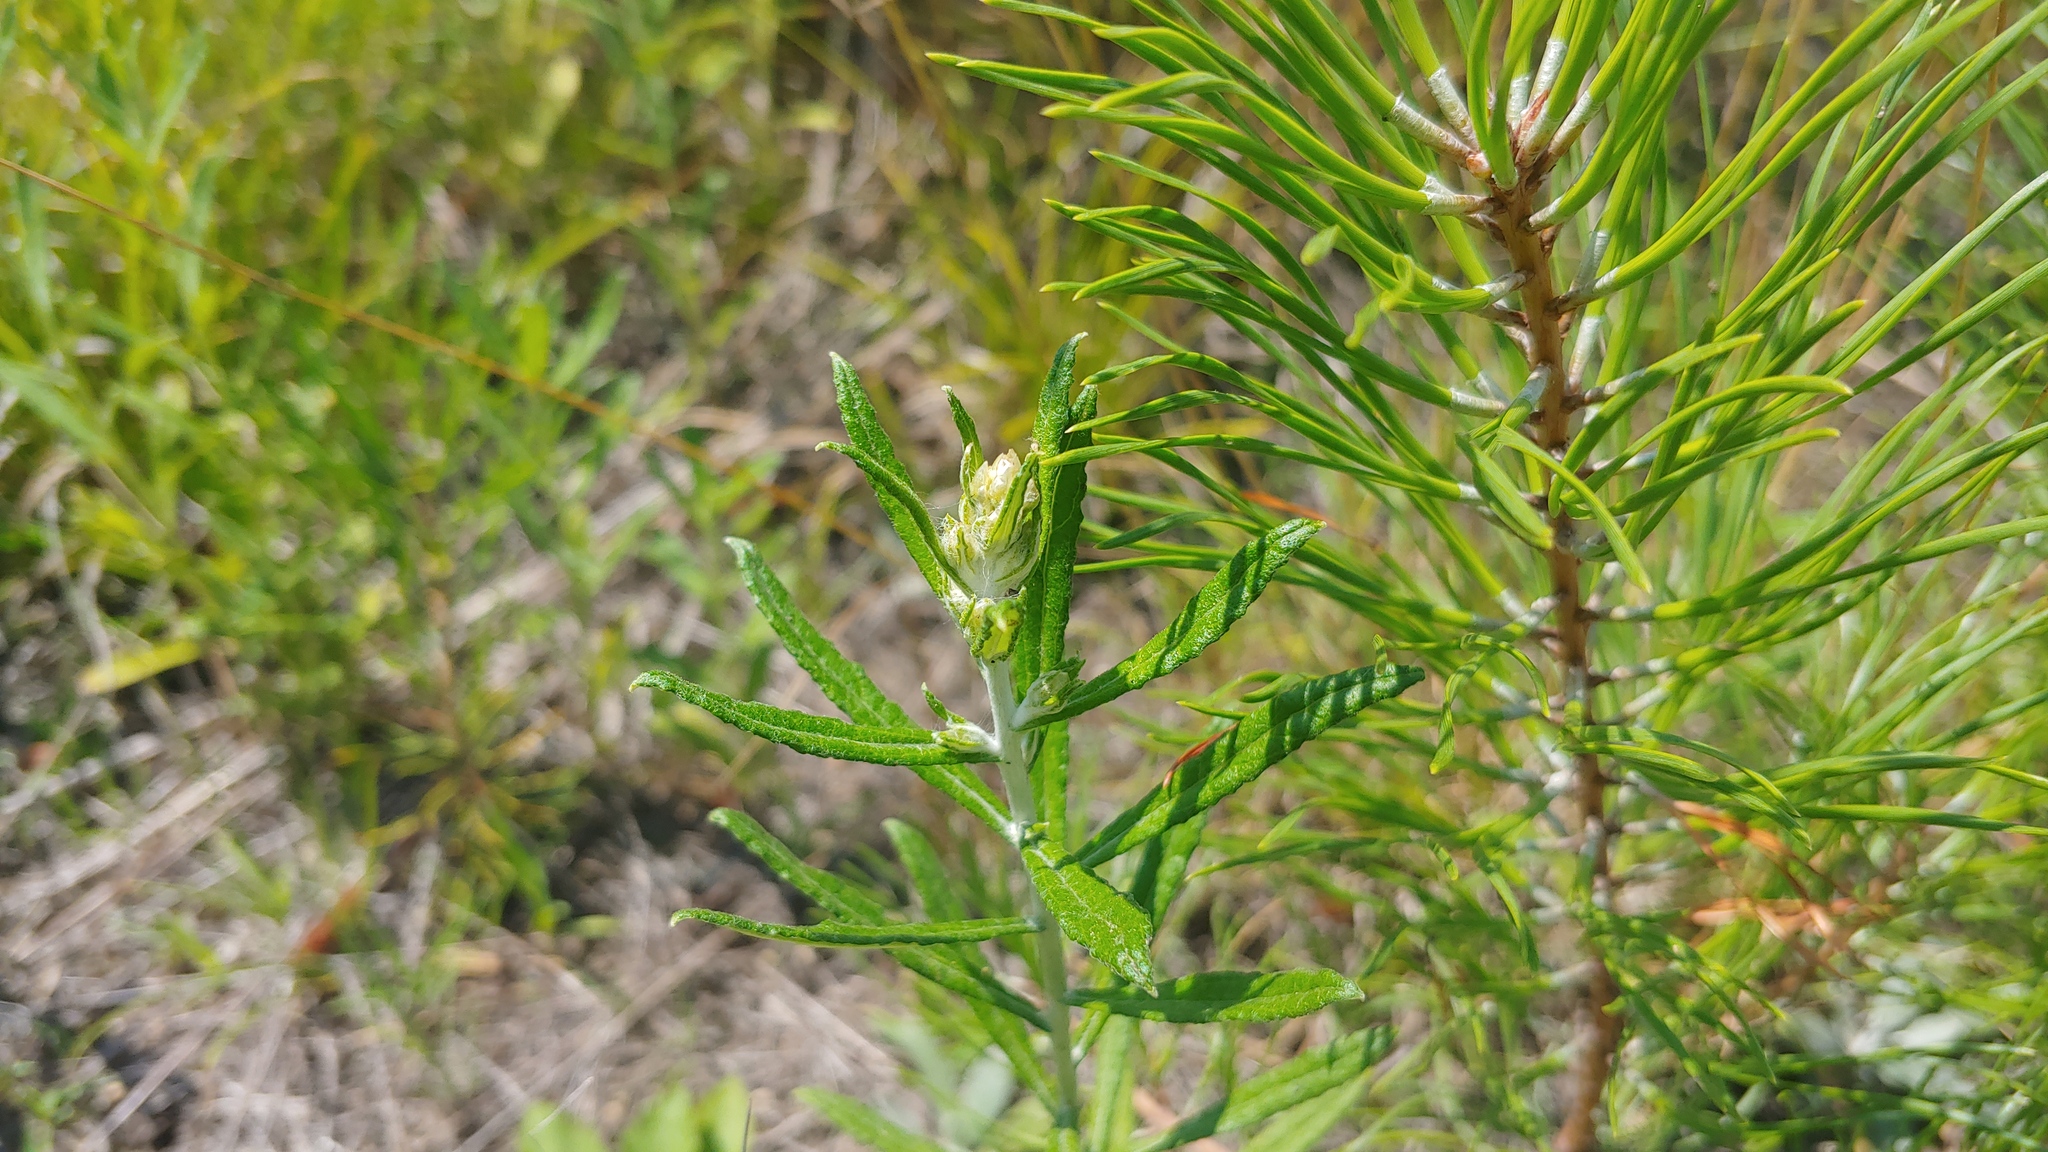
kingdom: Plantae
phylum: Tracheophyta
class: Magnoliopsida
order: Asterales
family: Asteraceae
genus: Pseudognaphalium
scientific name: Pseudognaphalium obtusifolium
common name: Eastern rabbit-tobacco
